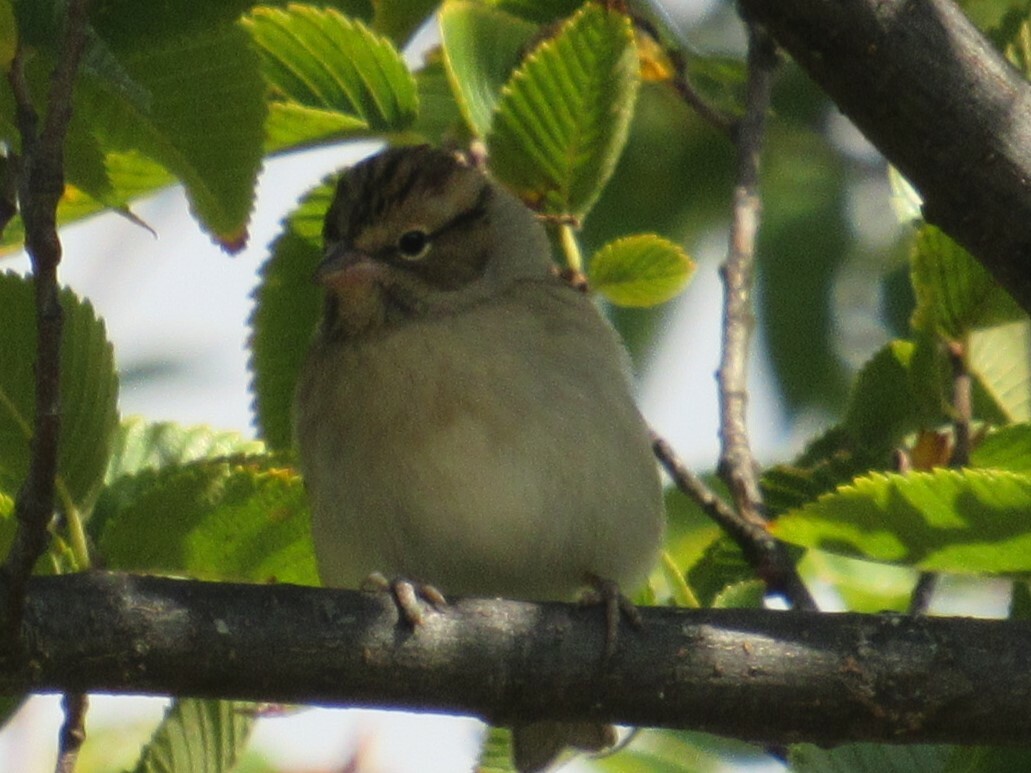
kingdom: Animalia
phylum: Chordata
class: Aves
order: Passeriformes
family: Passerellidae
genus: Spizella
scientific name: Spizella passerina
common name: Chipping sparrow
